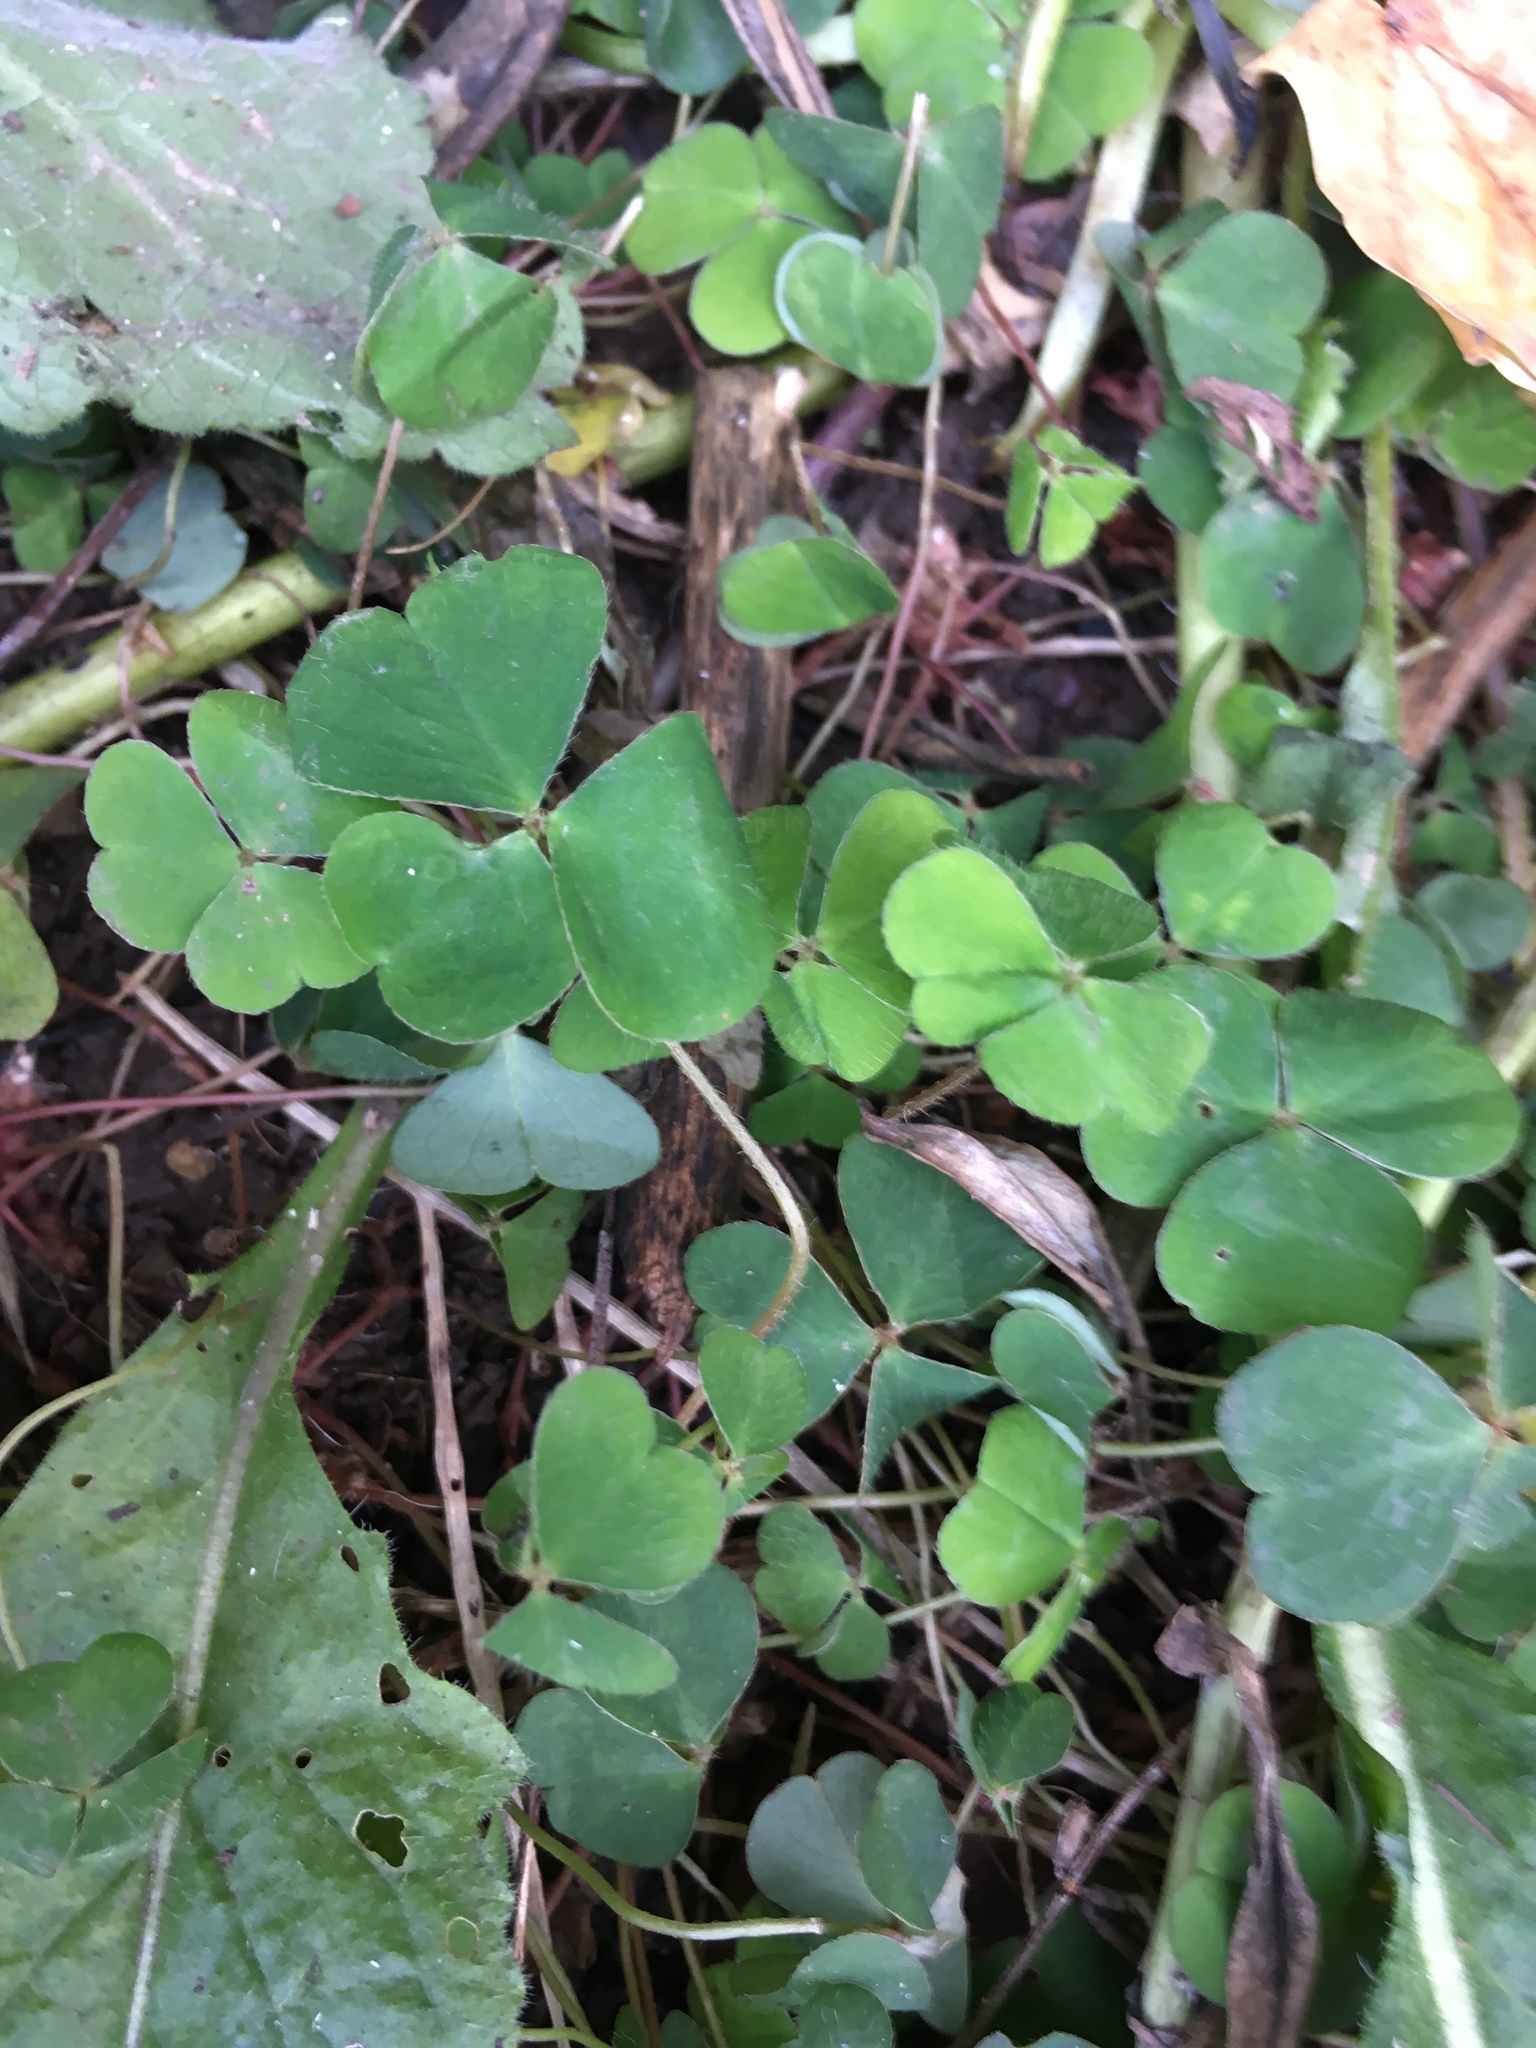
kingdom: Plantae
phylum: Tracheophyta
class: Magnoliopsida
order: Oxalidales
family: Oxalidaceae
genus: Oxalis
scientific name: Oxalis acetosella
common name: Wood-sorrel
